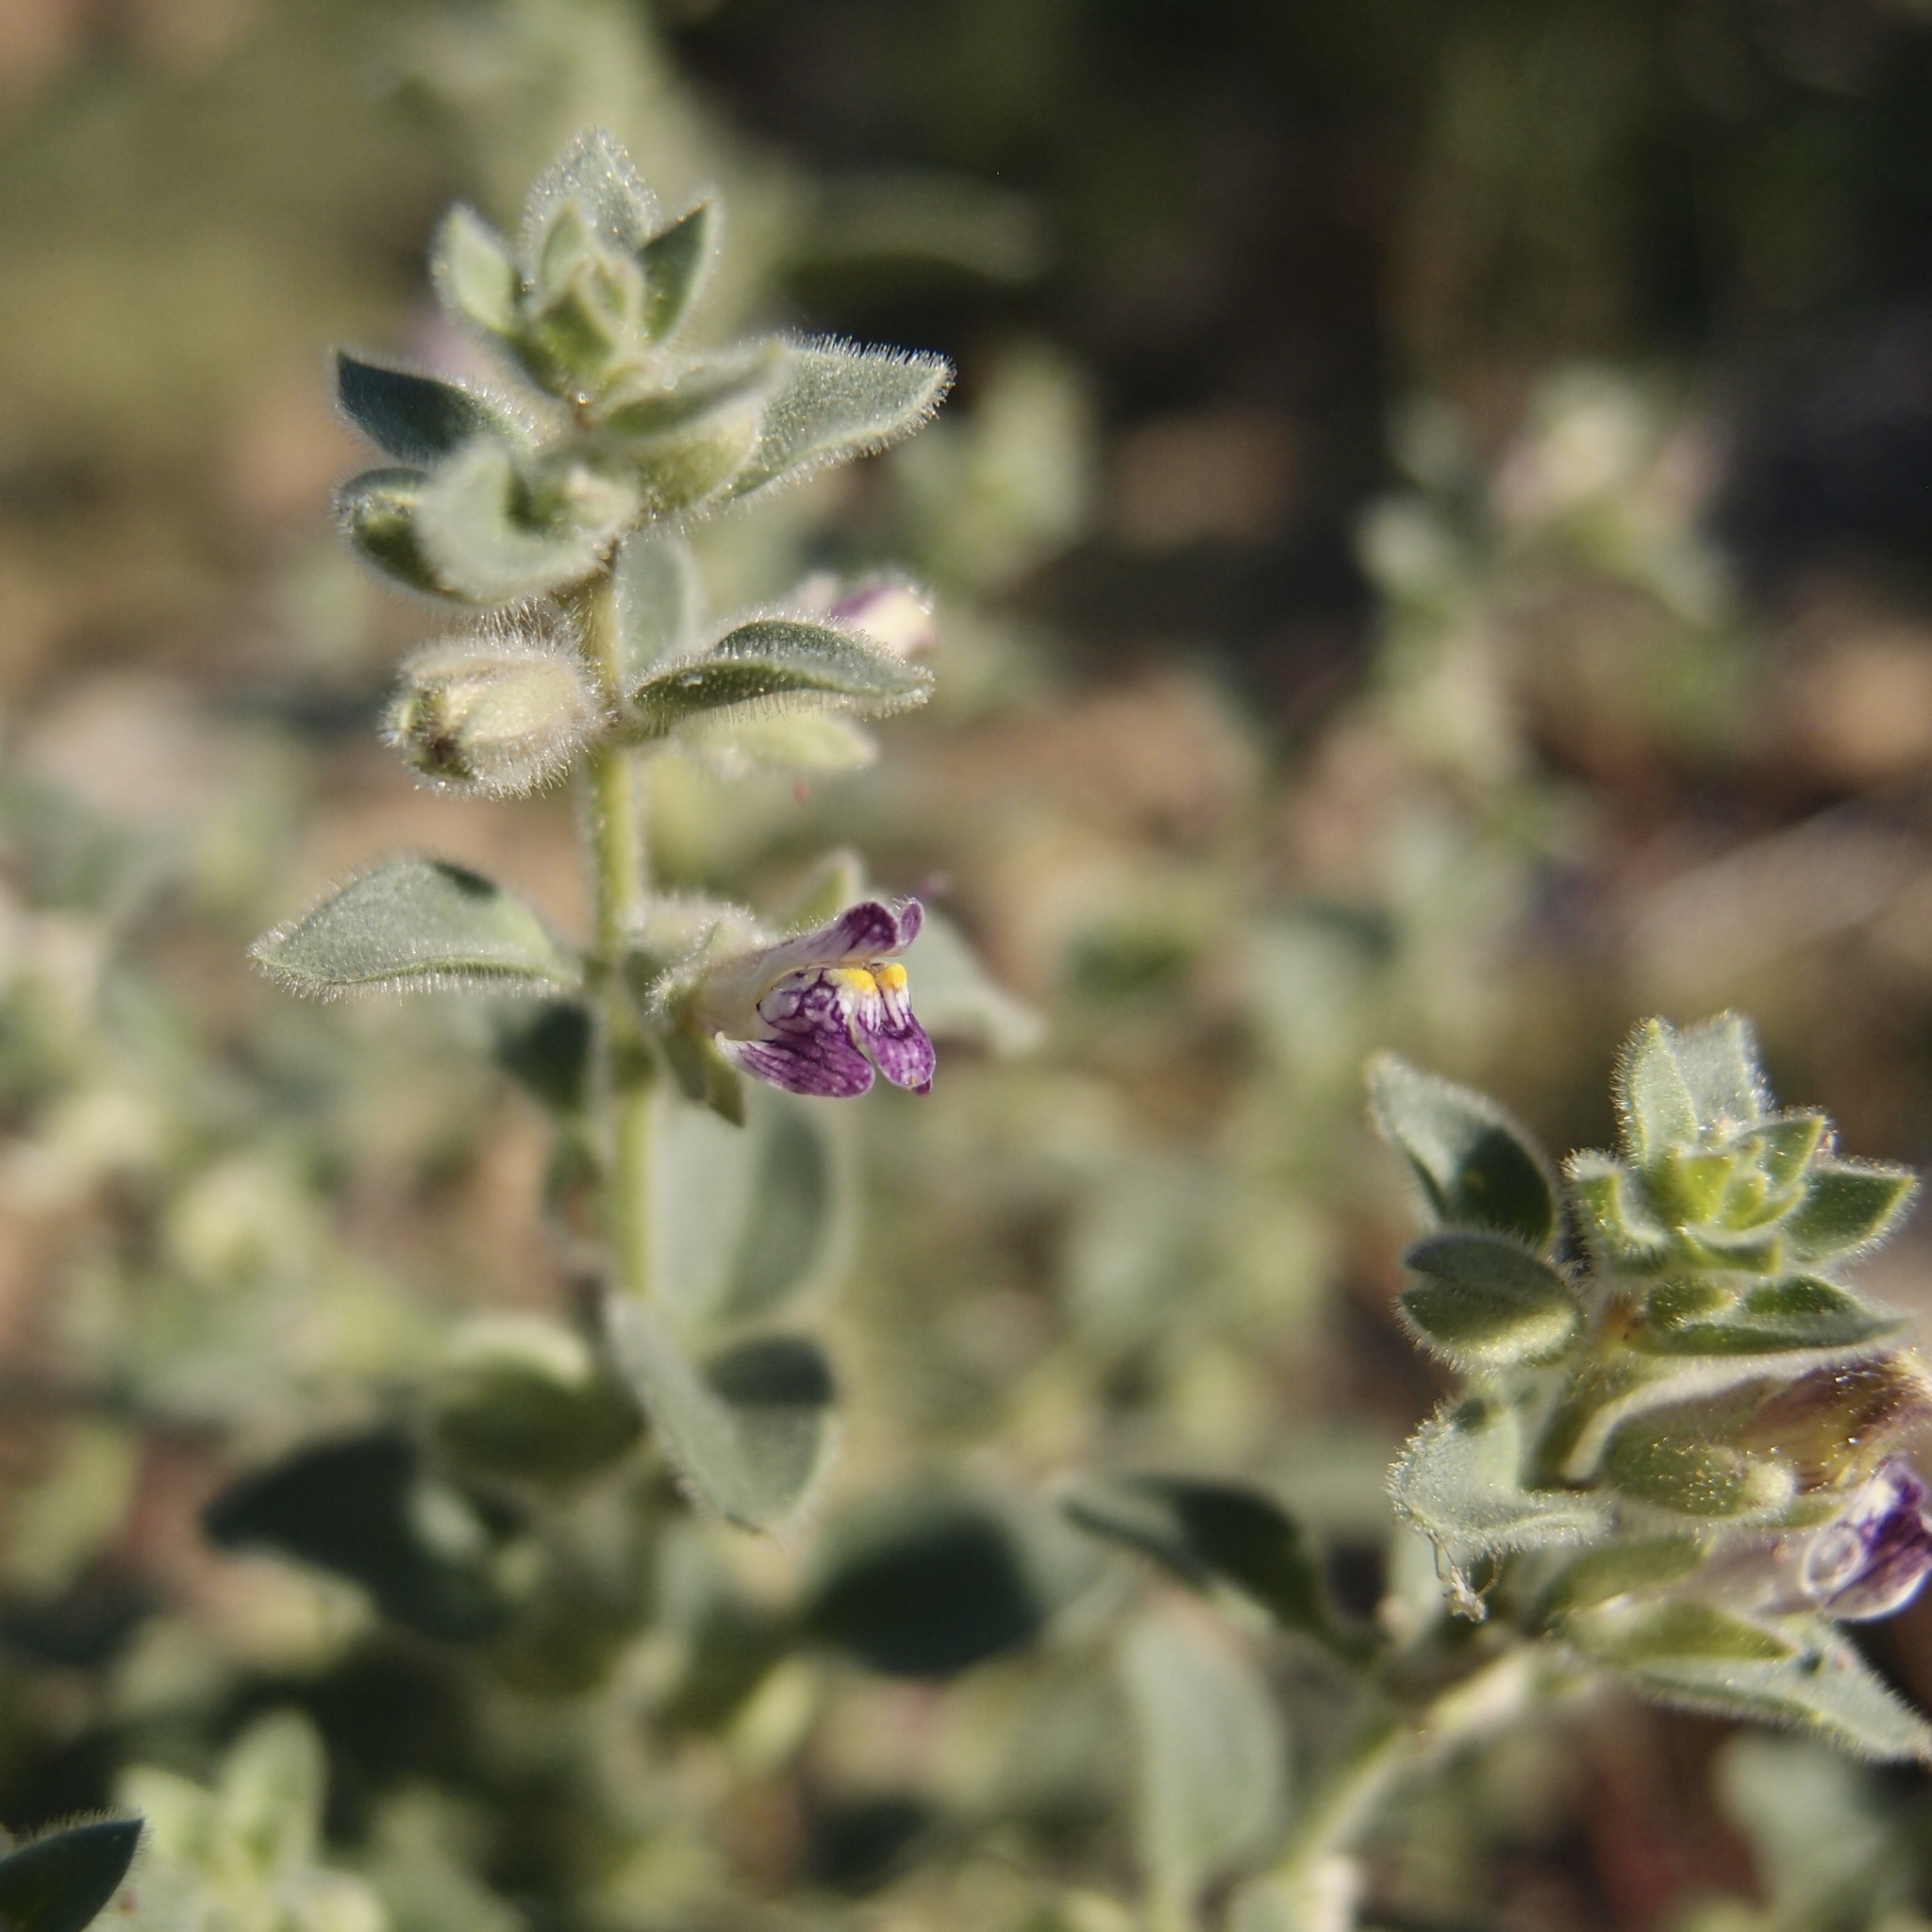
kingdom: Plantae
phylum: Tracheophyta
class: Magnoliopsida
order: Lamiales
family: Plantaginaceae
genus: Pseudorontium
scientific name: Pseudorontium cyathiferum
